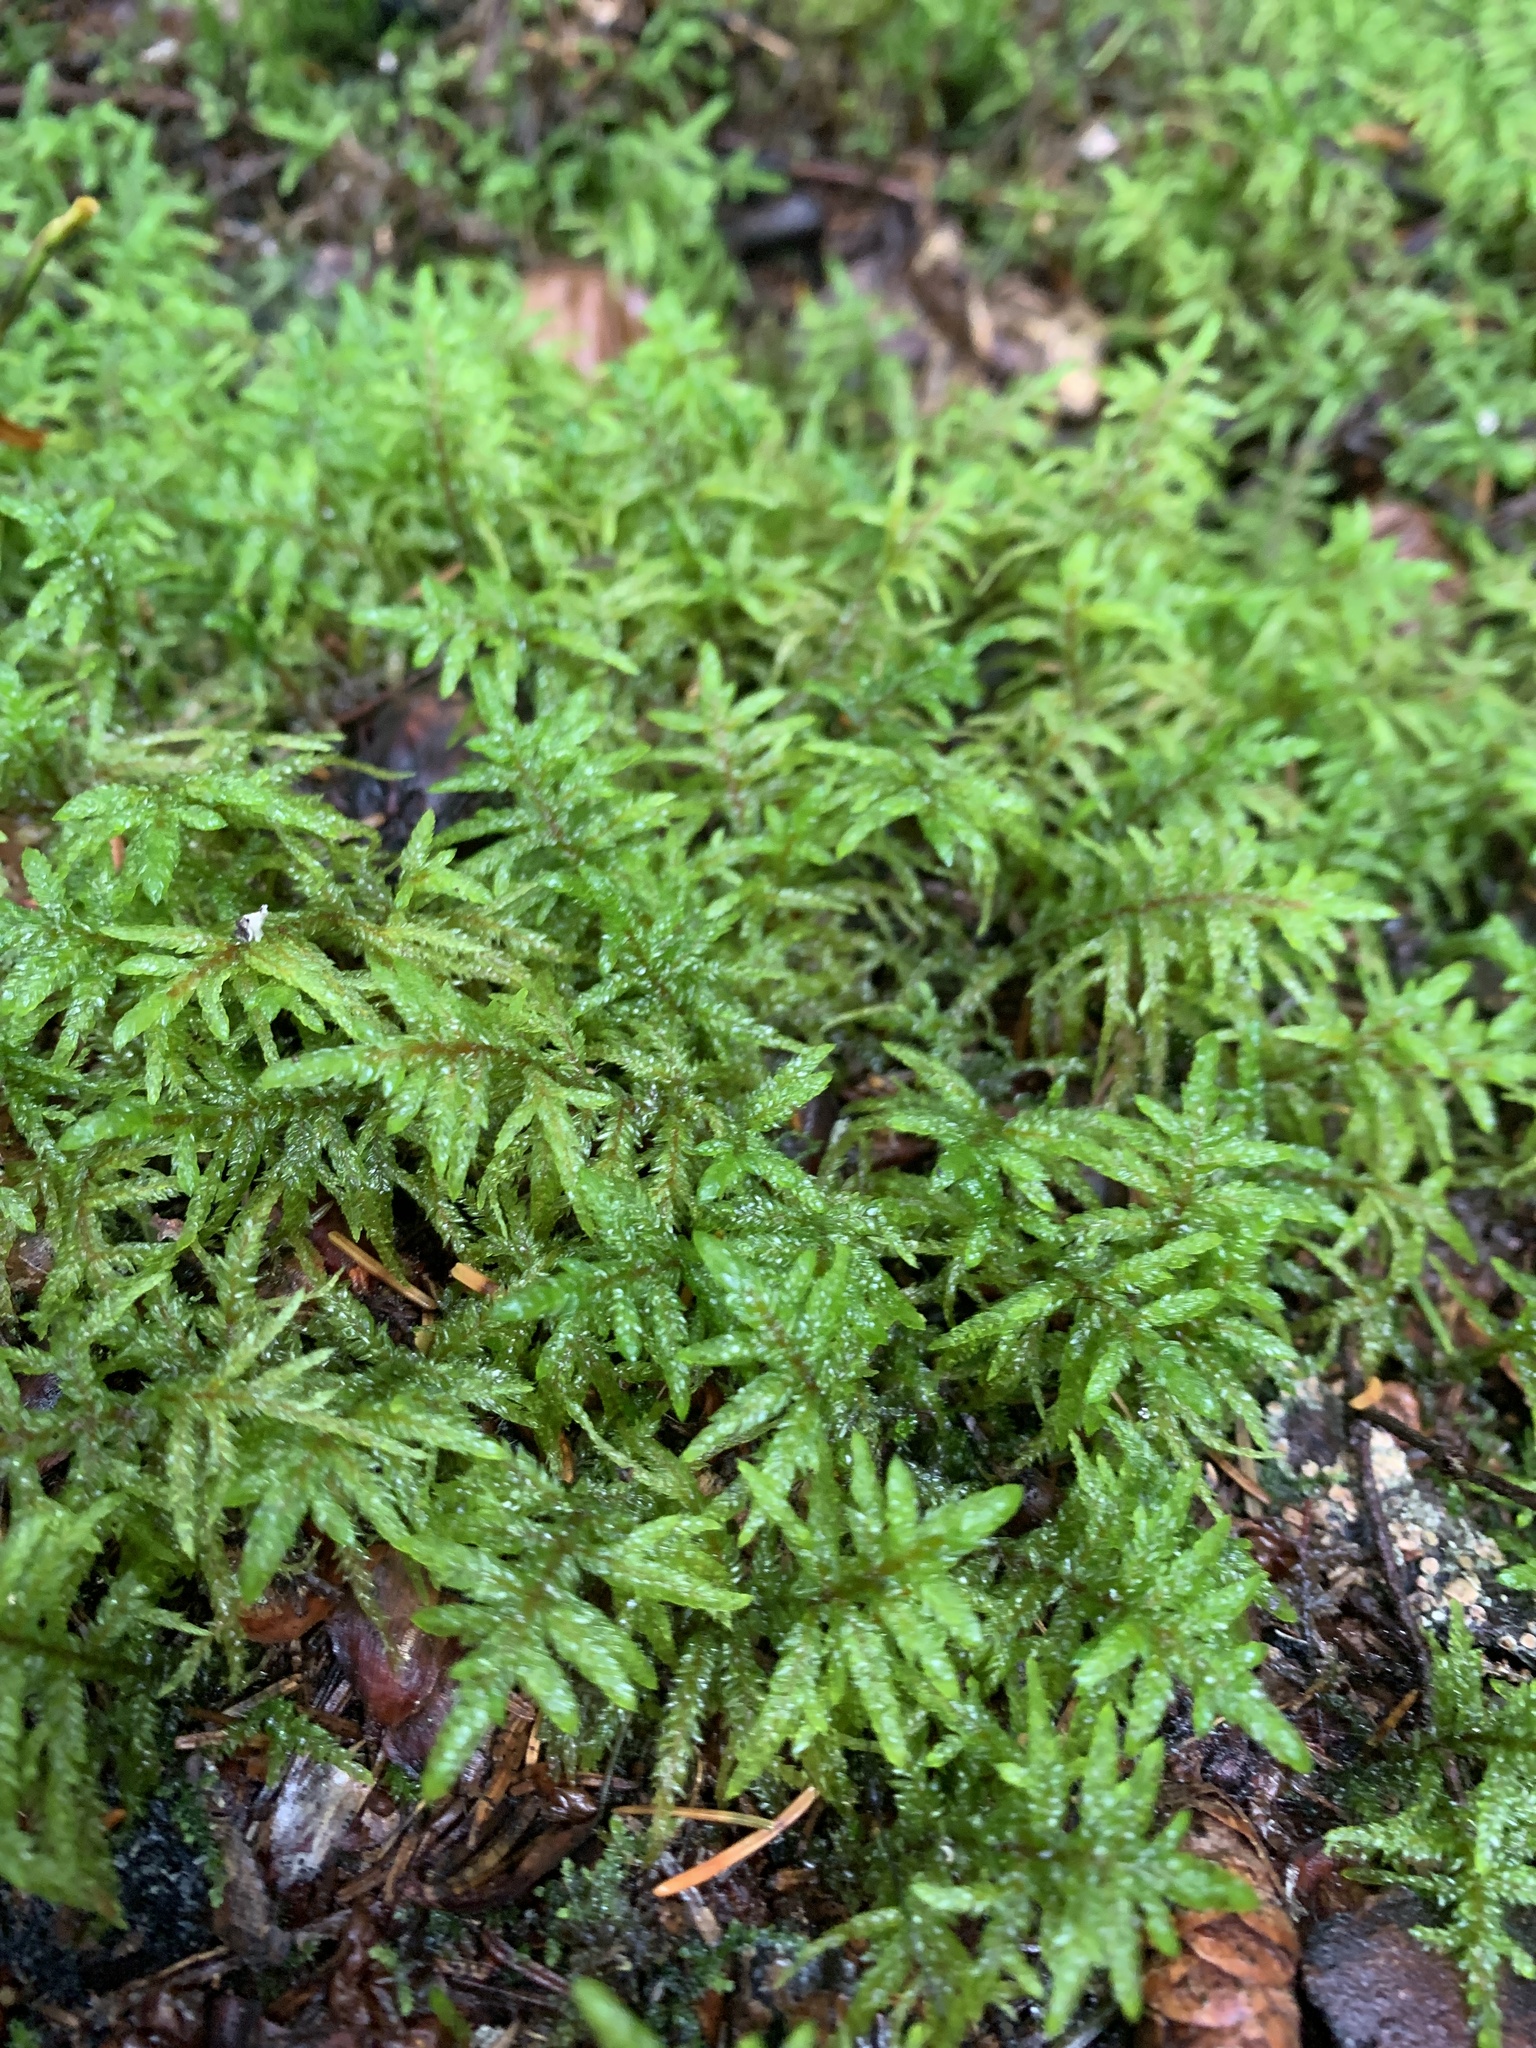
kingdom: Plantae
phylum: Bryophyta
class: Bryopsida
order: Hypnales
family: Hylocomiaceae
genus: Pleurozium
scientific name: Pleurozium schreberi
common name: Red-stemmed feather moss
